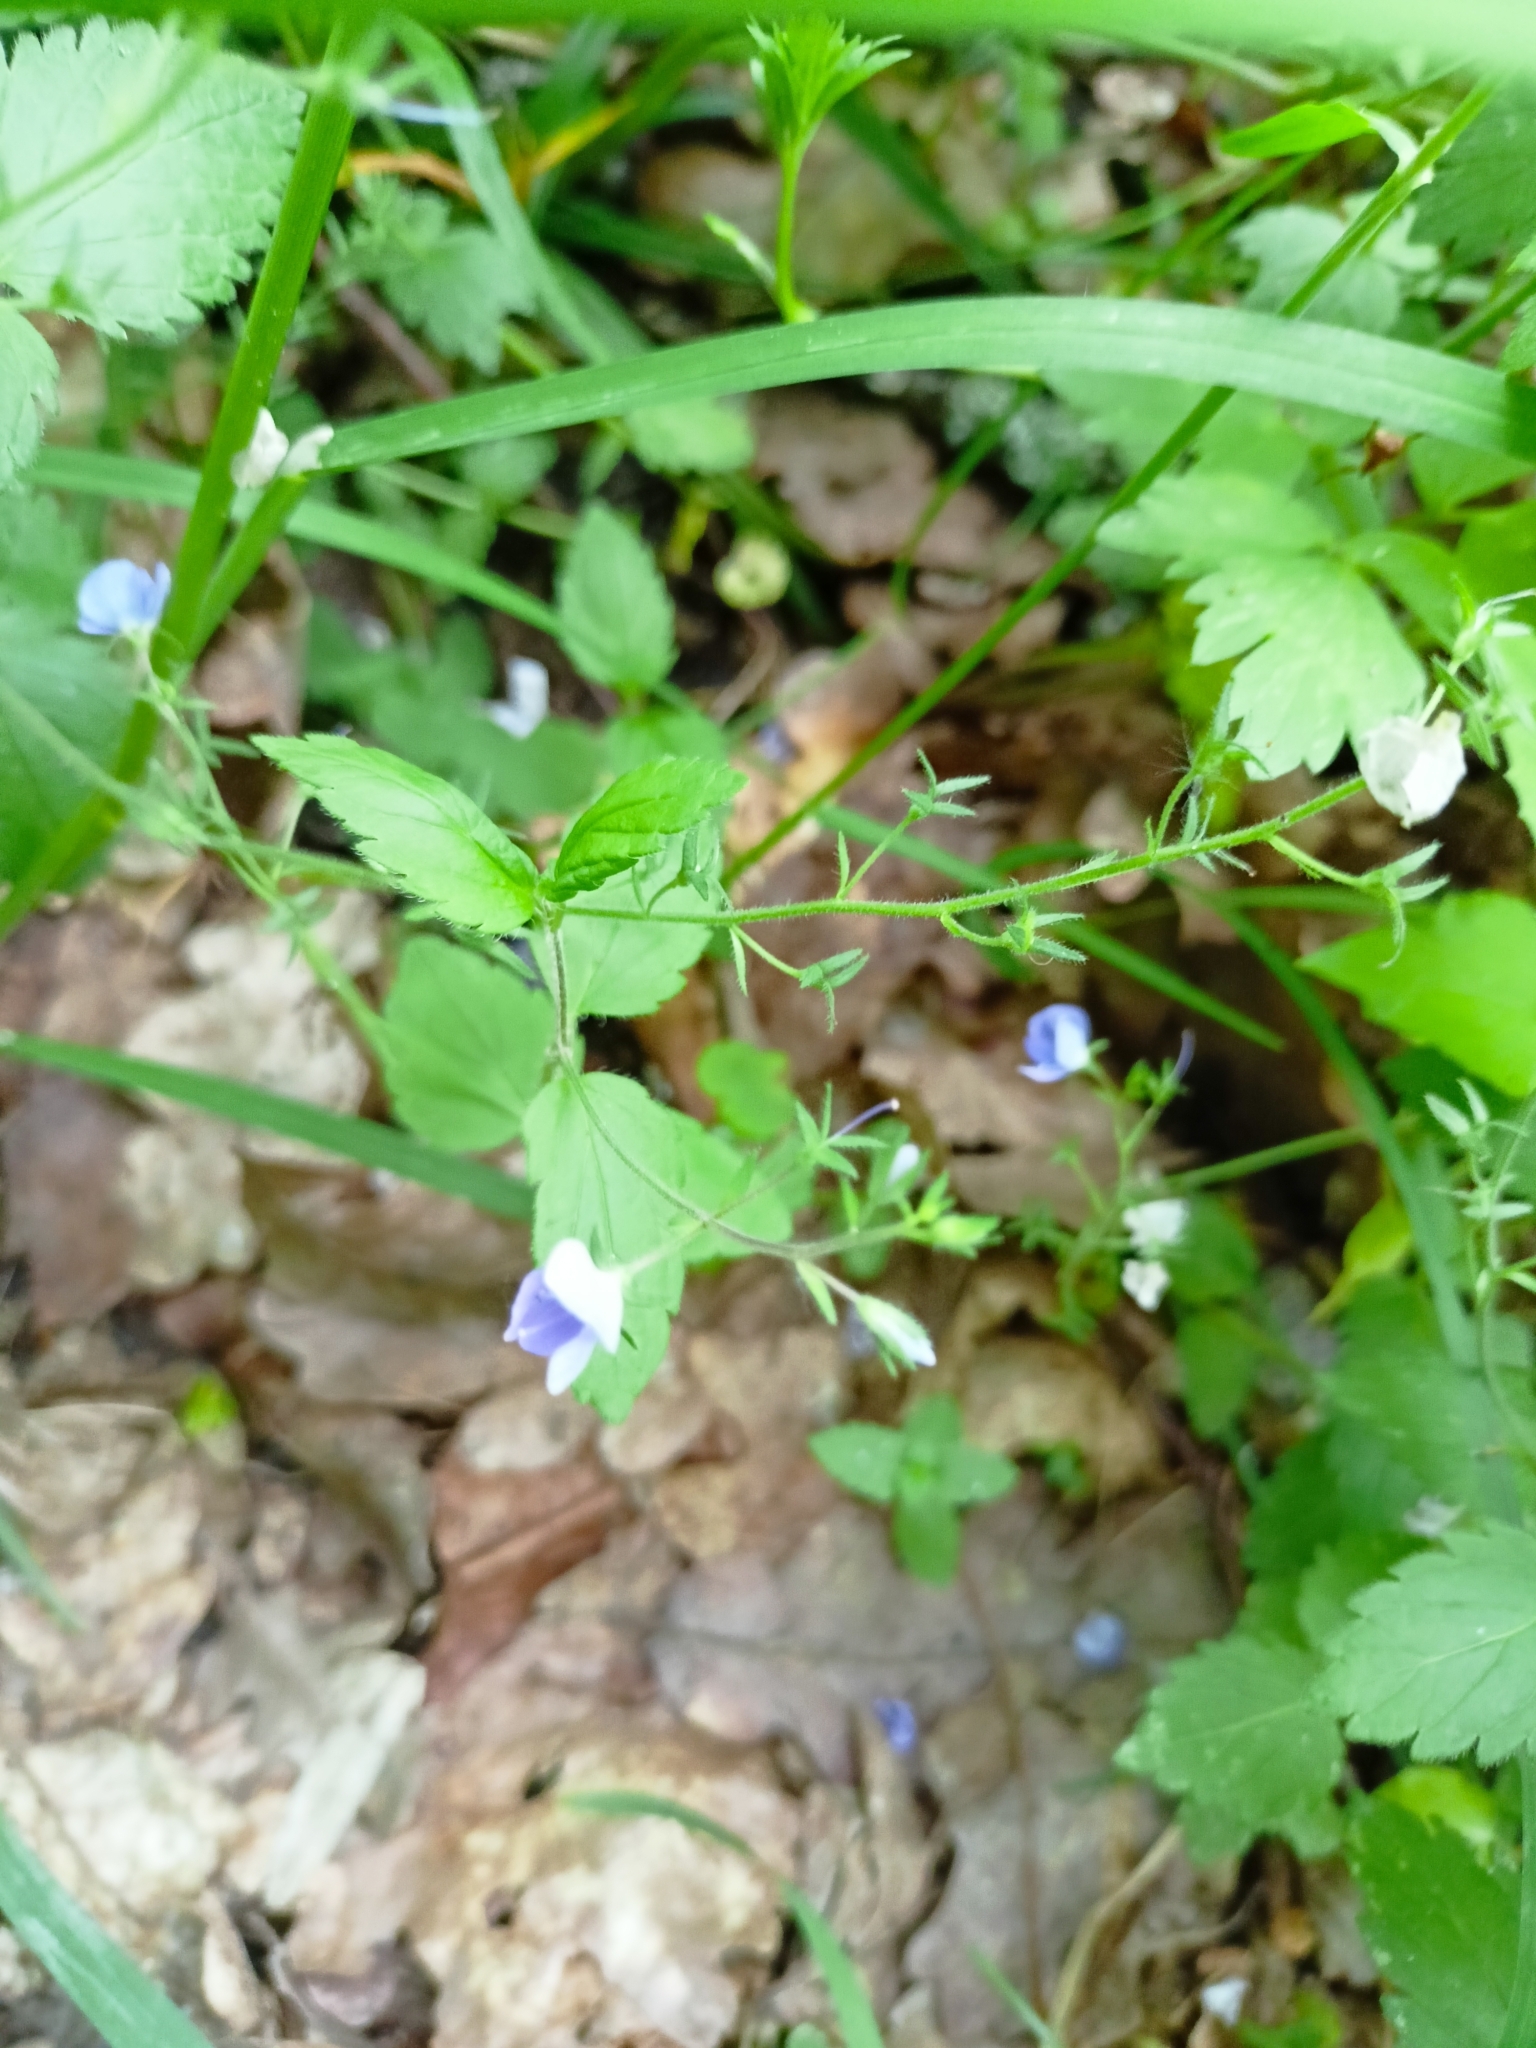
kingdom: Plantae
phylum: Tracheophyta
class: Magnoliopsida
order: Lamiales
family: Plantaginaceae
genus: Veronica
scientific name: Veronica chamaedrys
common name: Germander speedwell
